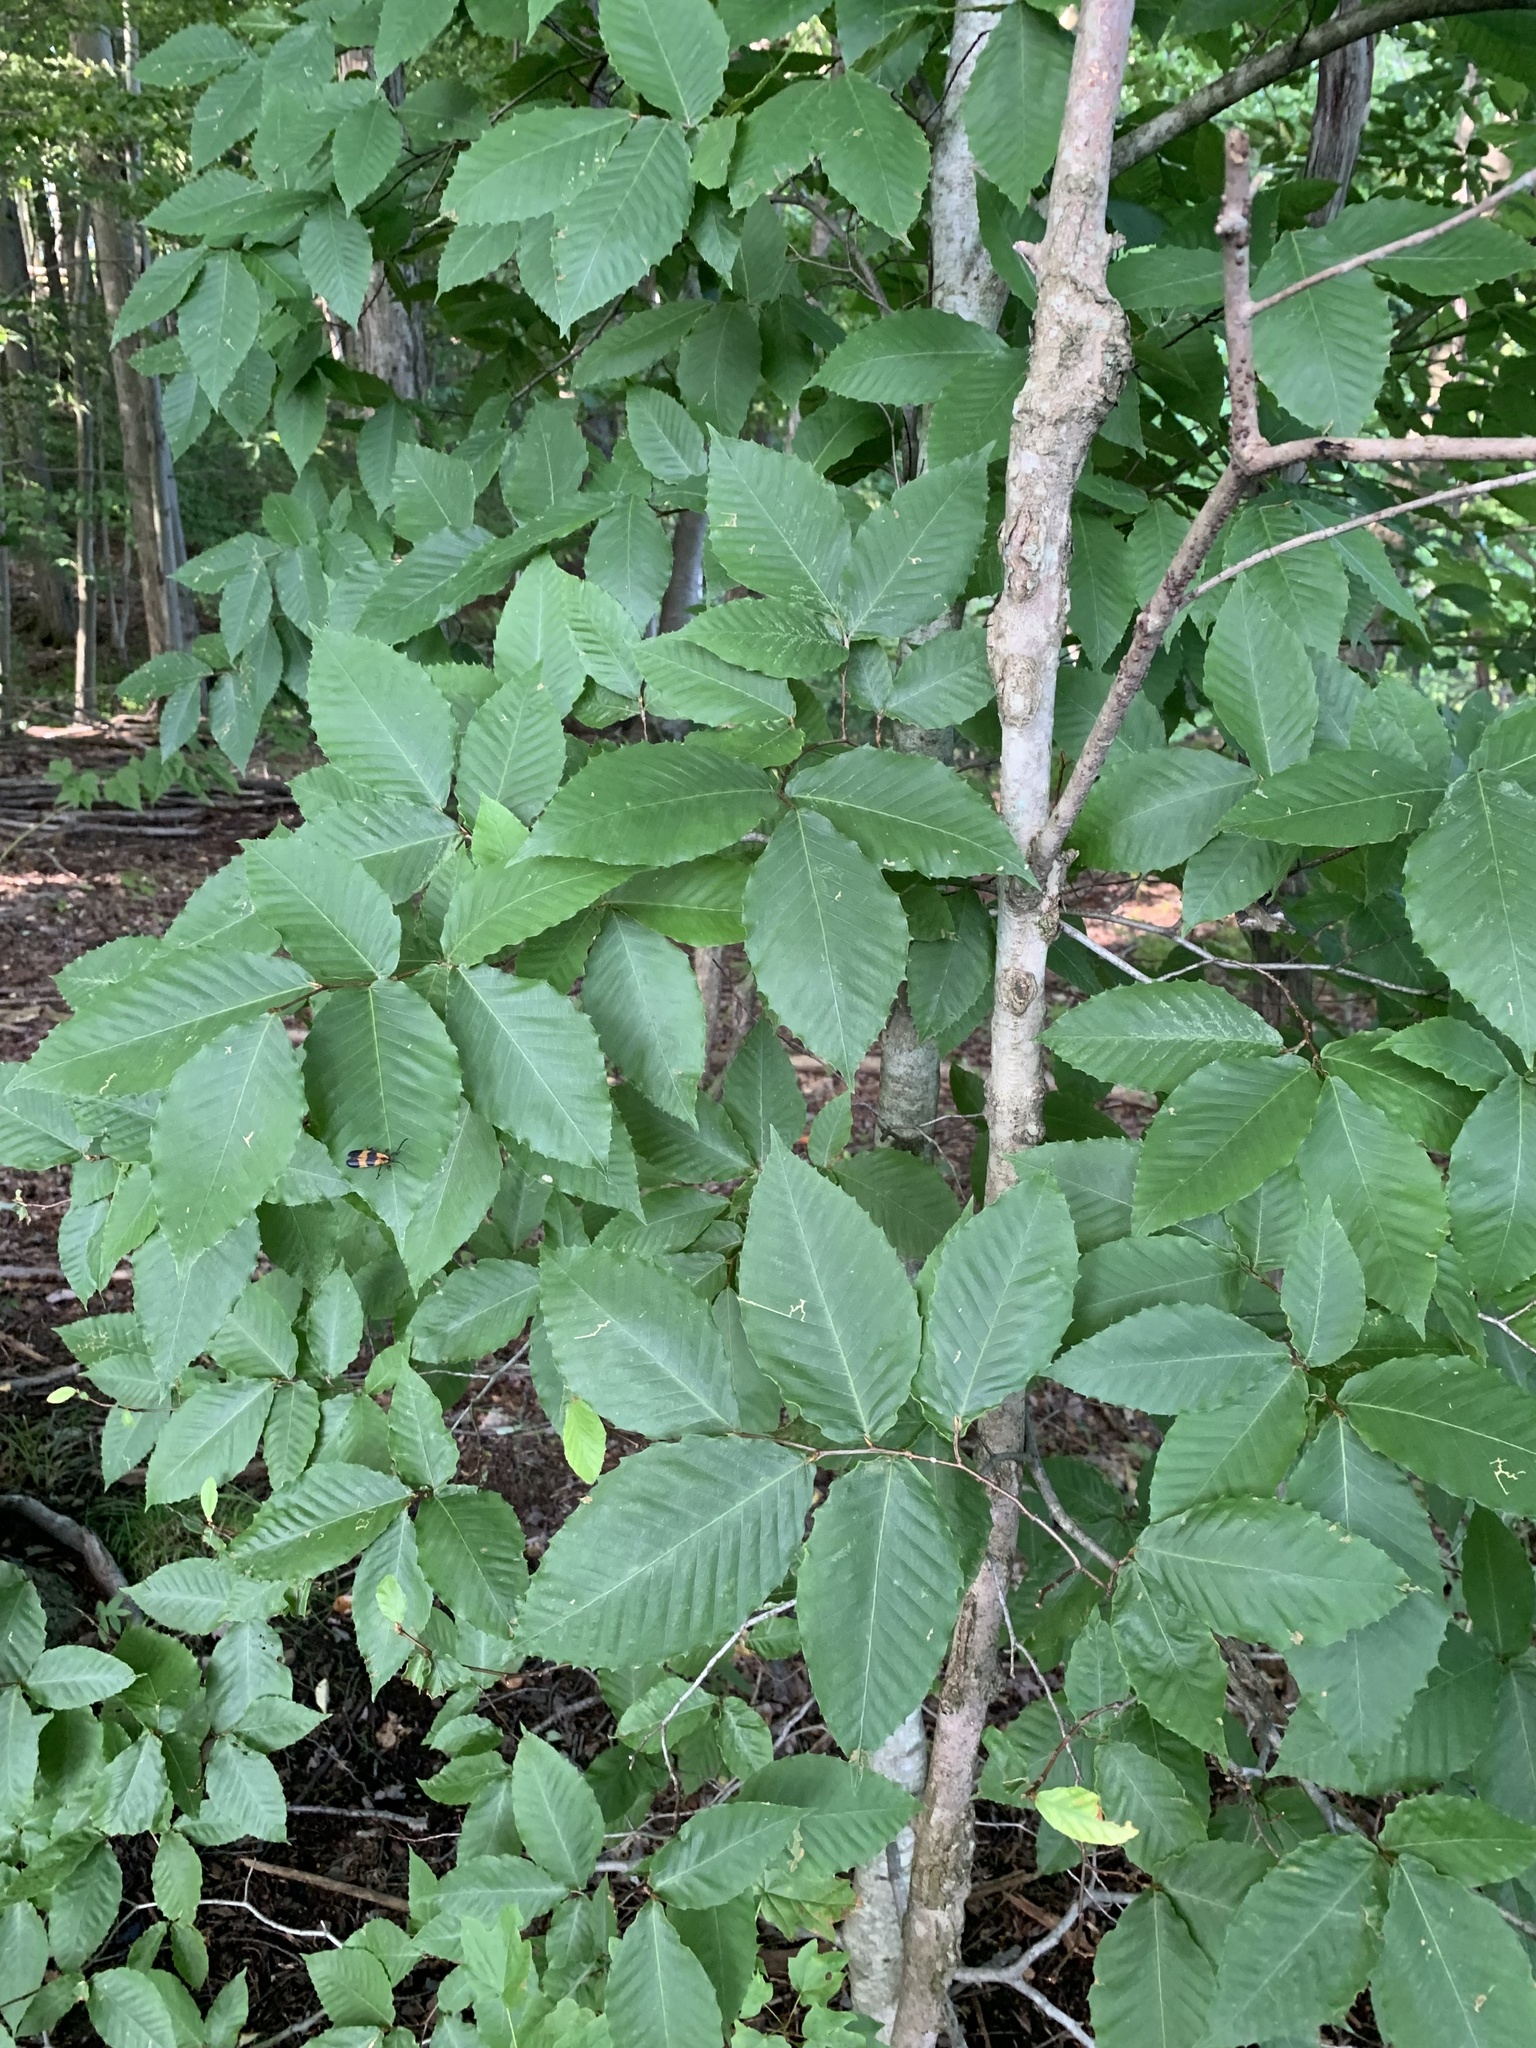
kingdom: Plantae
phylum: Tracheophyta
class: Magnoliopsida
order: Fagales
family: Fagaceae
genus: Fagus
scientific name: Fagus grandifolia
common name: American beech
